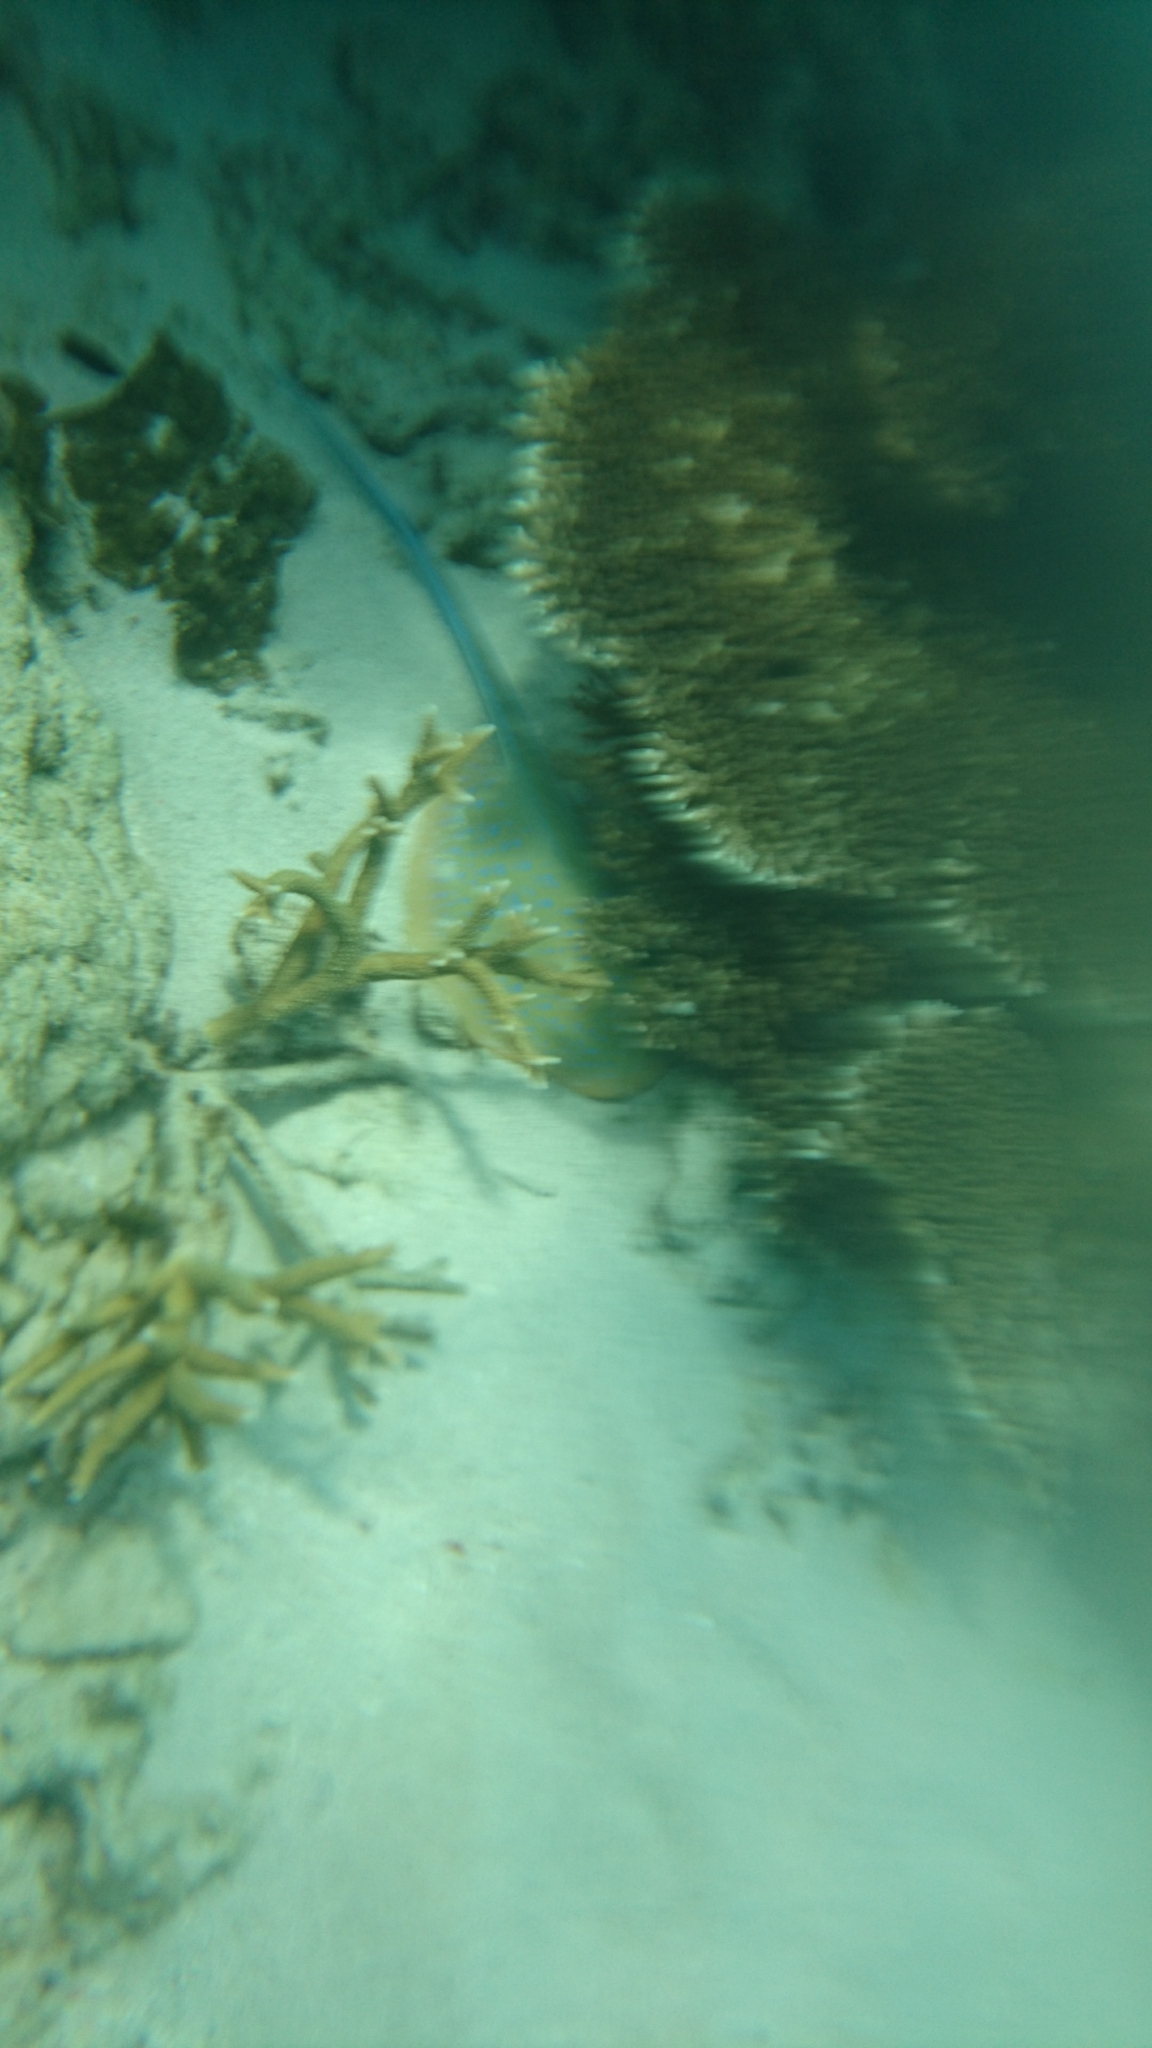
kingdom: Animalia
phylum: Chordata
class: Elasmobranchii
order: Myliobatiformes
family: Dasyatidae
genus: Taeniura
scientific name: Taeniura lymma
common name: Bluespotted ribbontail ray
